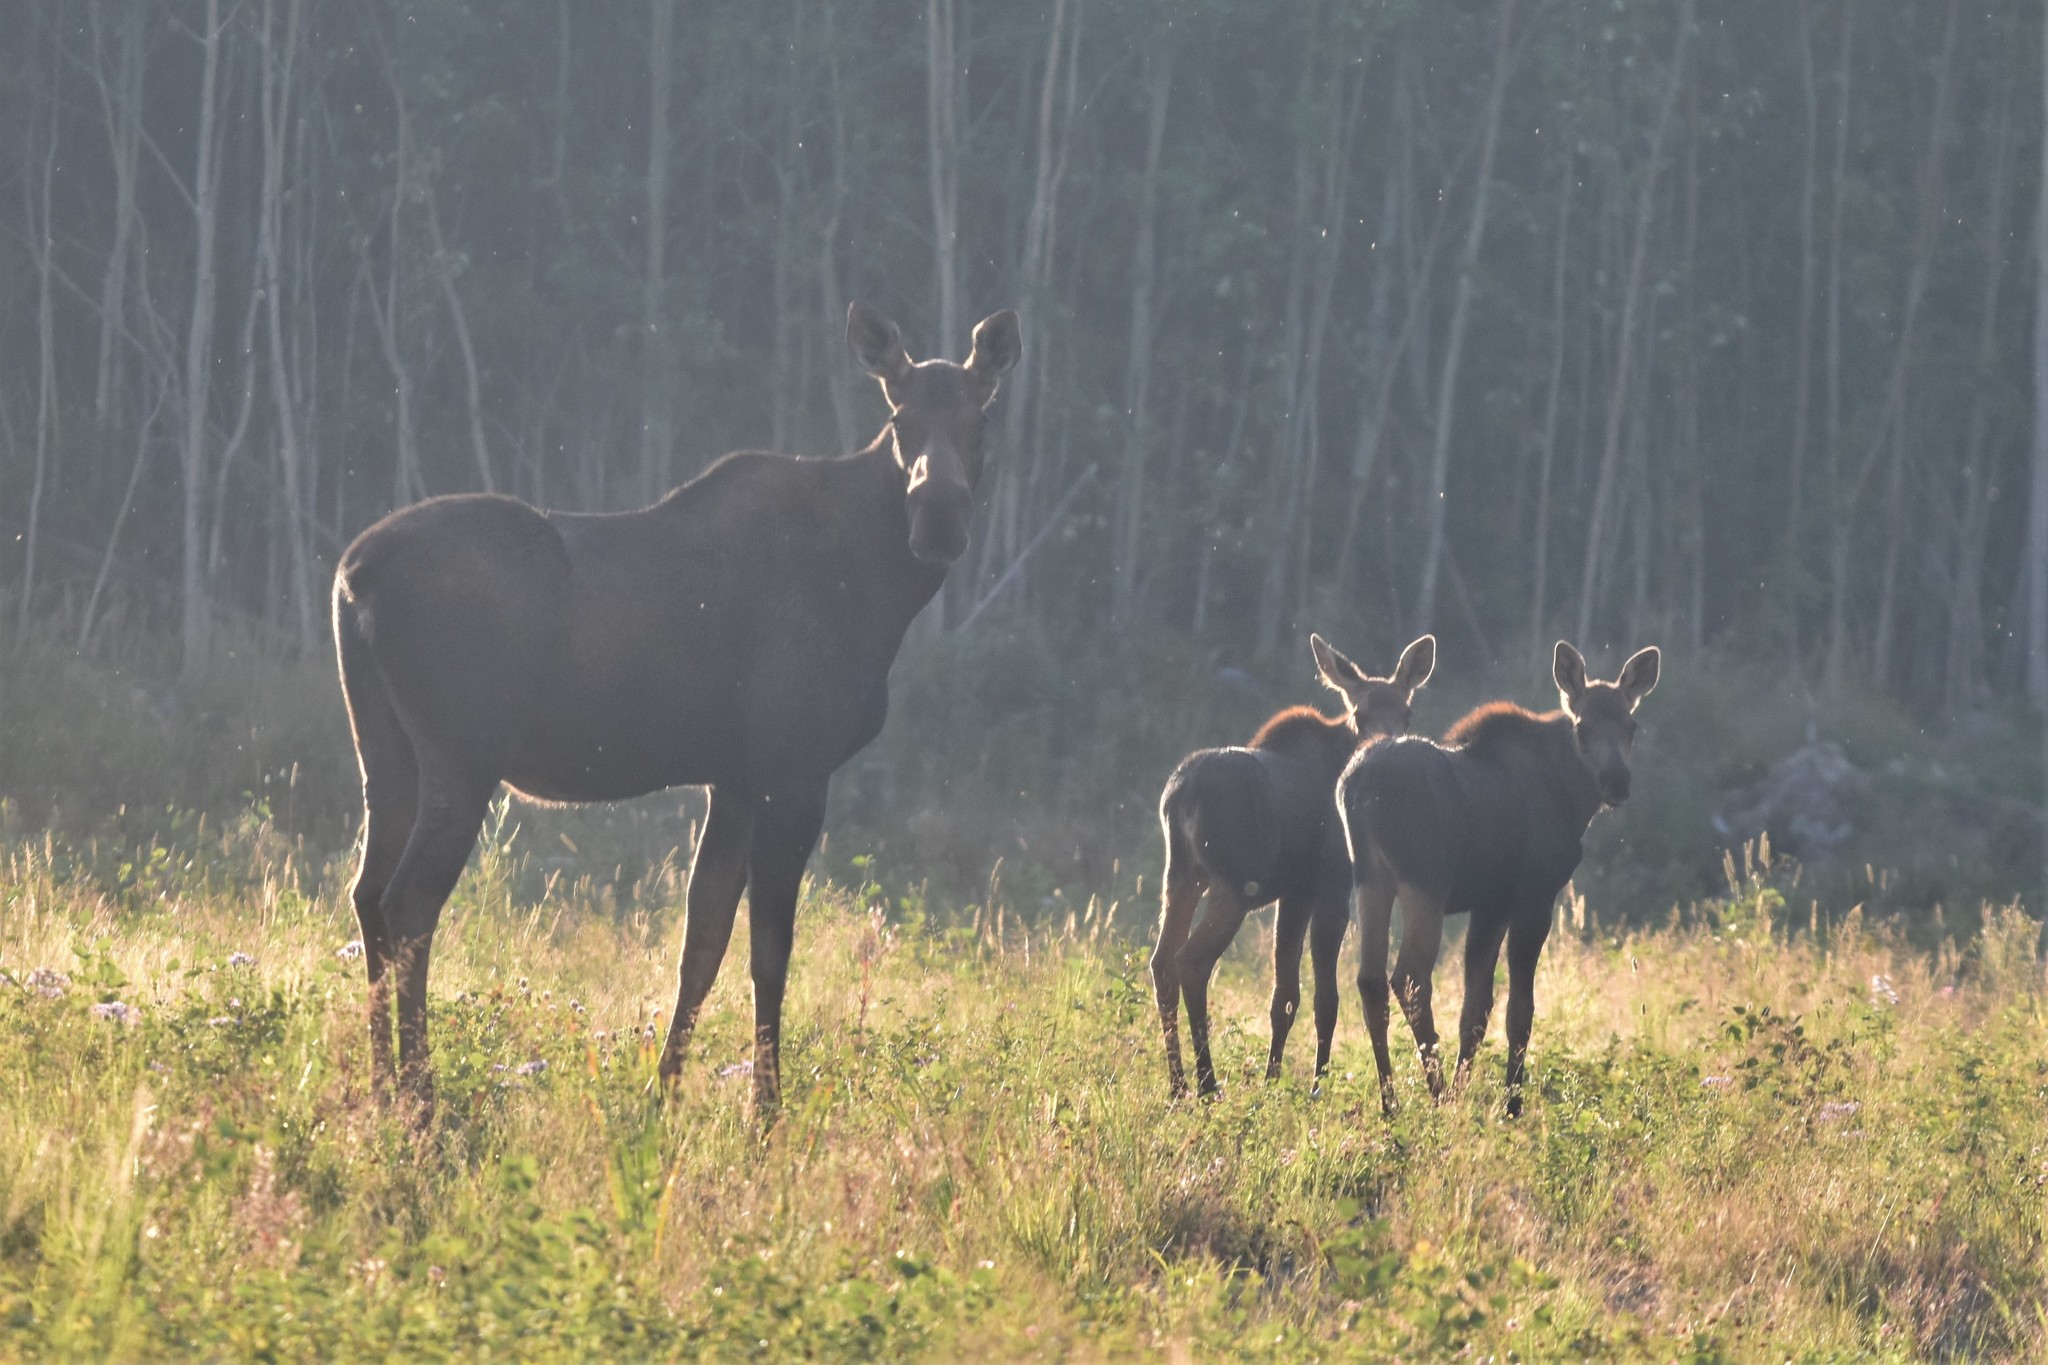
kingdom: Animalia
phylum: Chordata
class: Mammalia
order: Artiodactyla
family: Cervidae
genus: Alces
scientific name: Alces alces
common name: Moose
